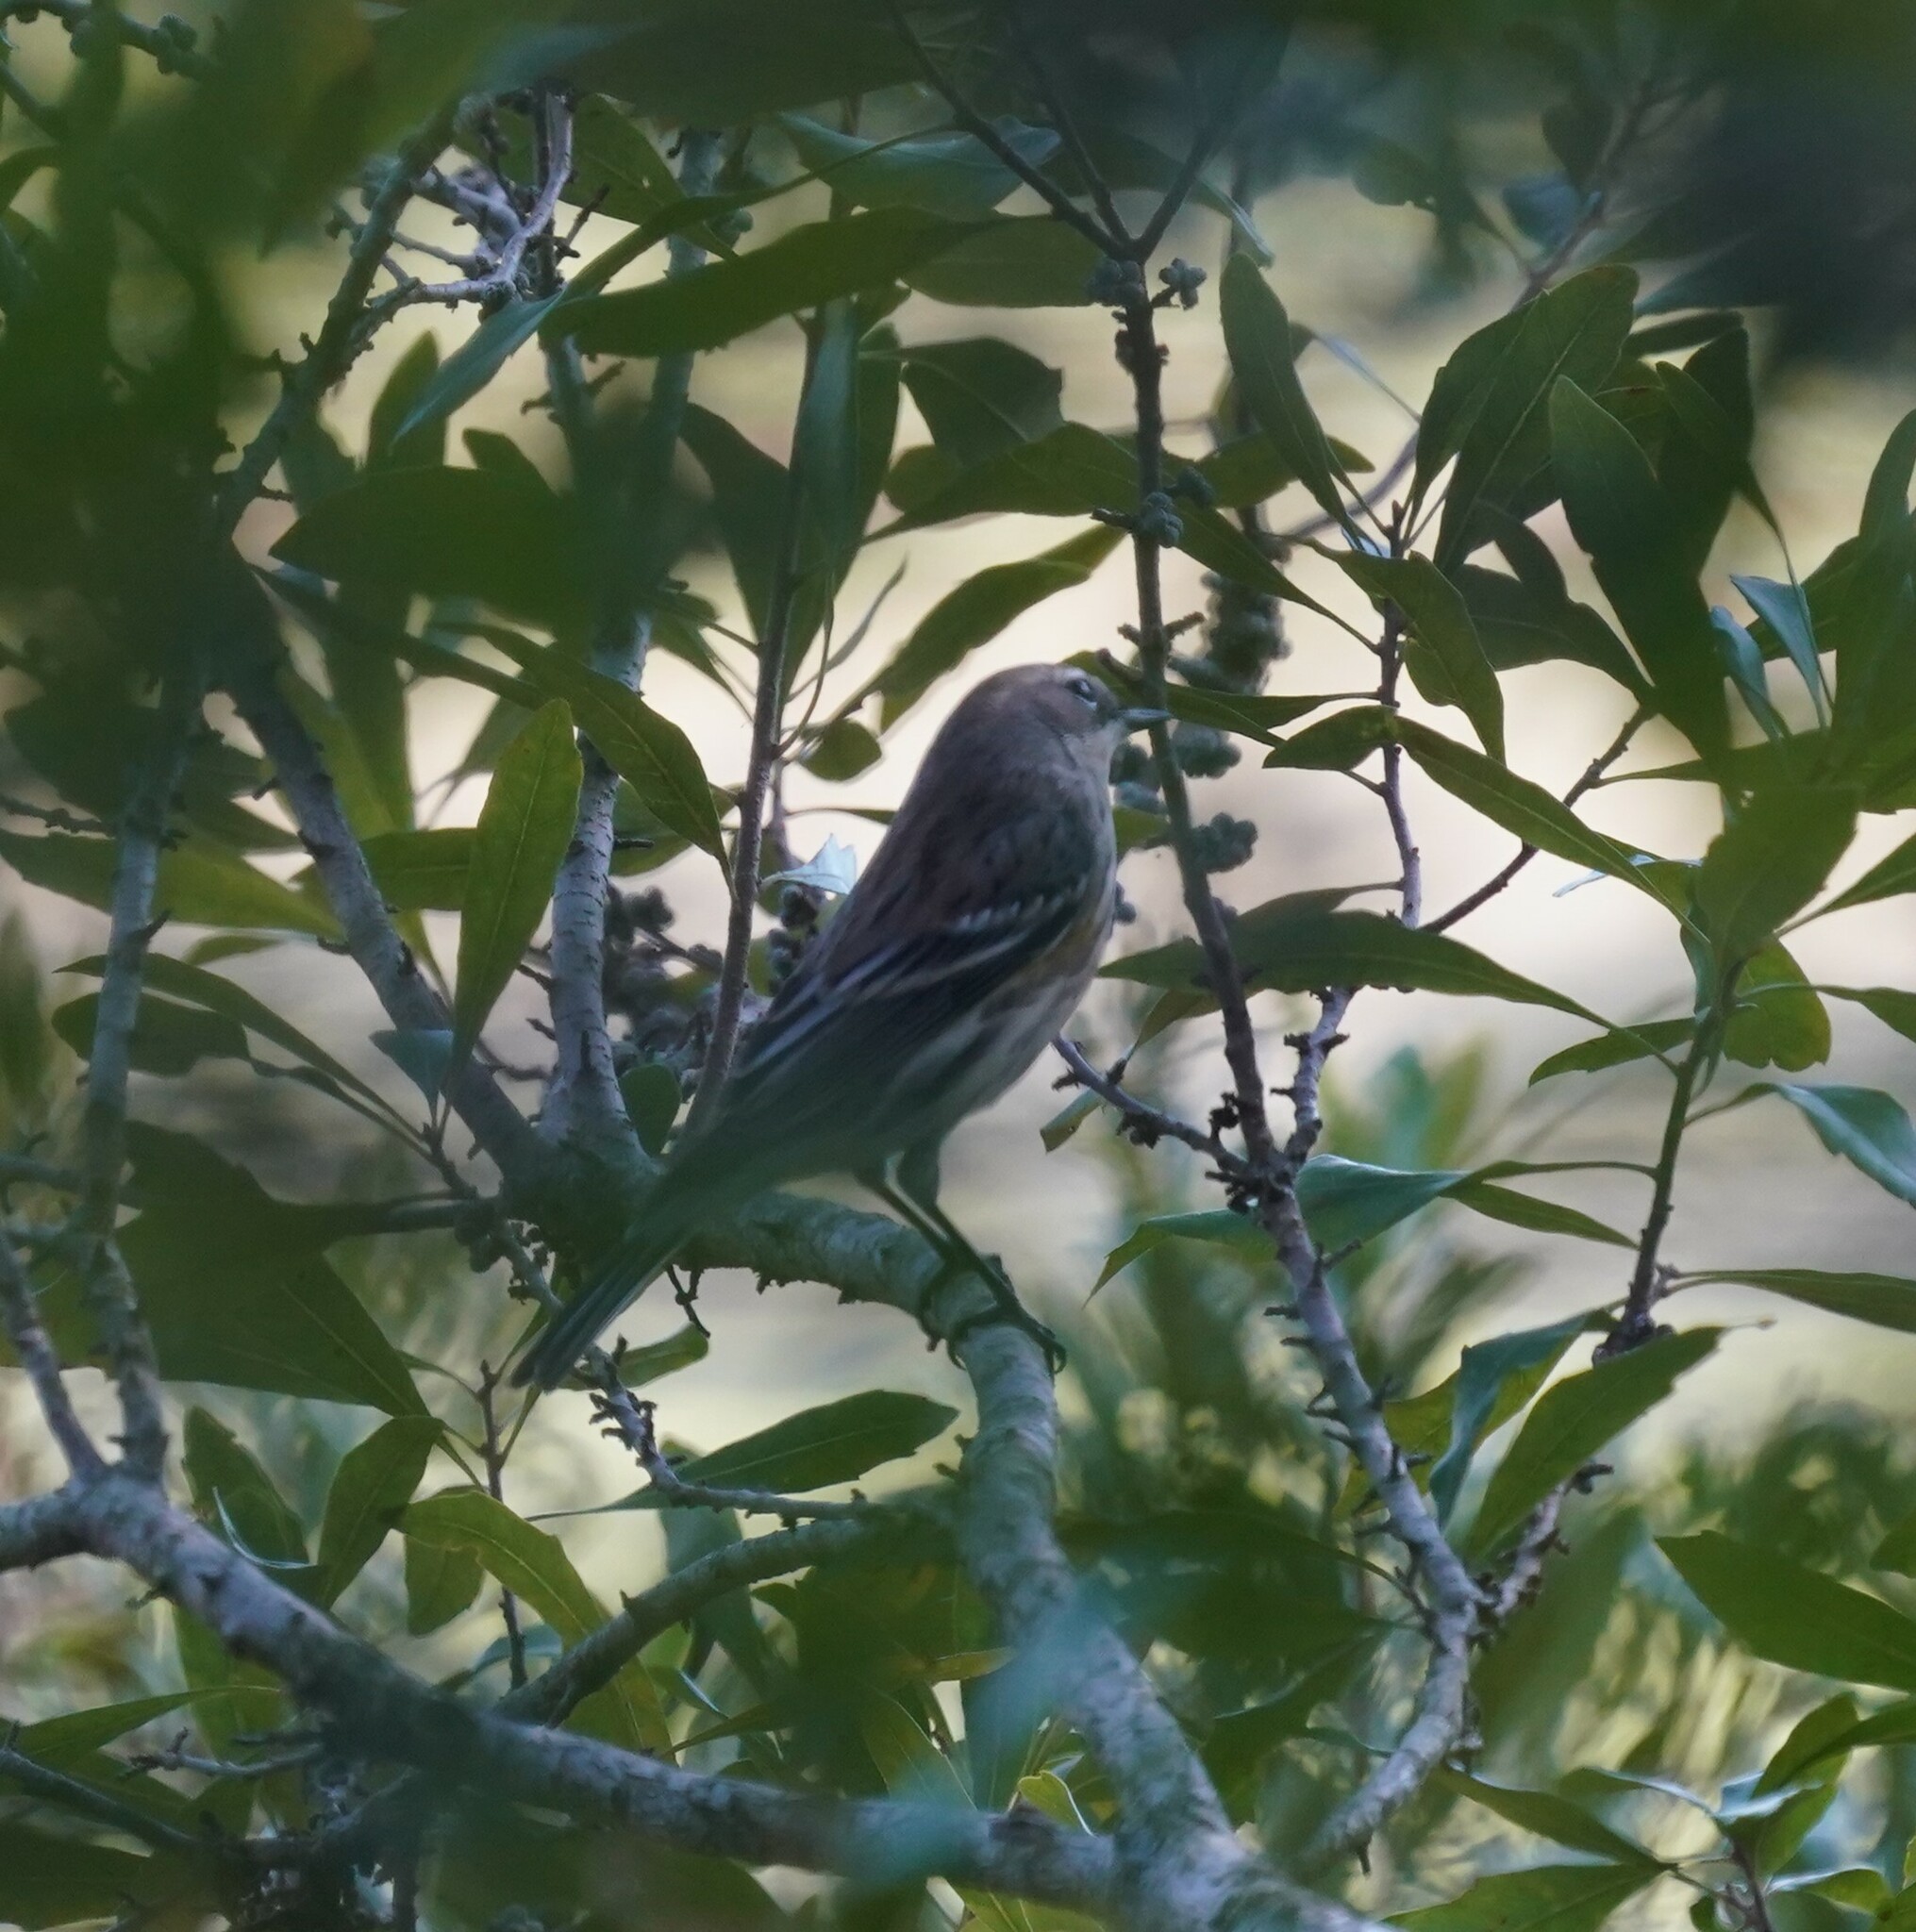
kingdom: Animalia
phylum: Chordata
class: Aves
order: Passeriformes
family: Parulidae
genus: Setophaga
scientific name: Setophaga coronata
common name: Myrtle warbler
